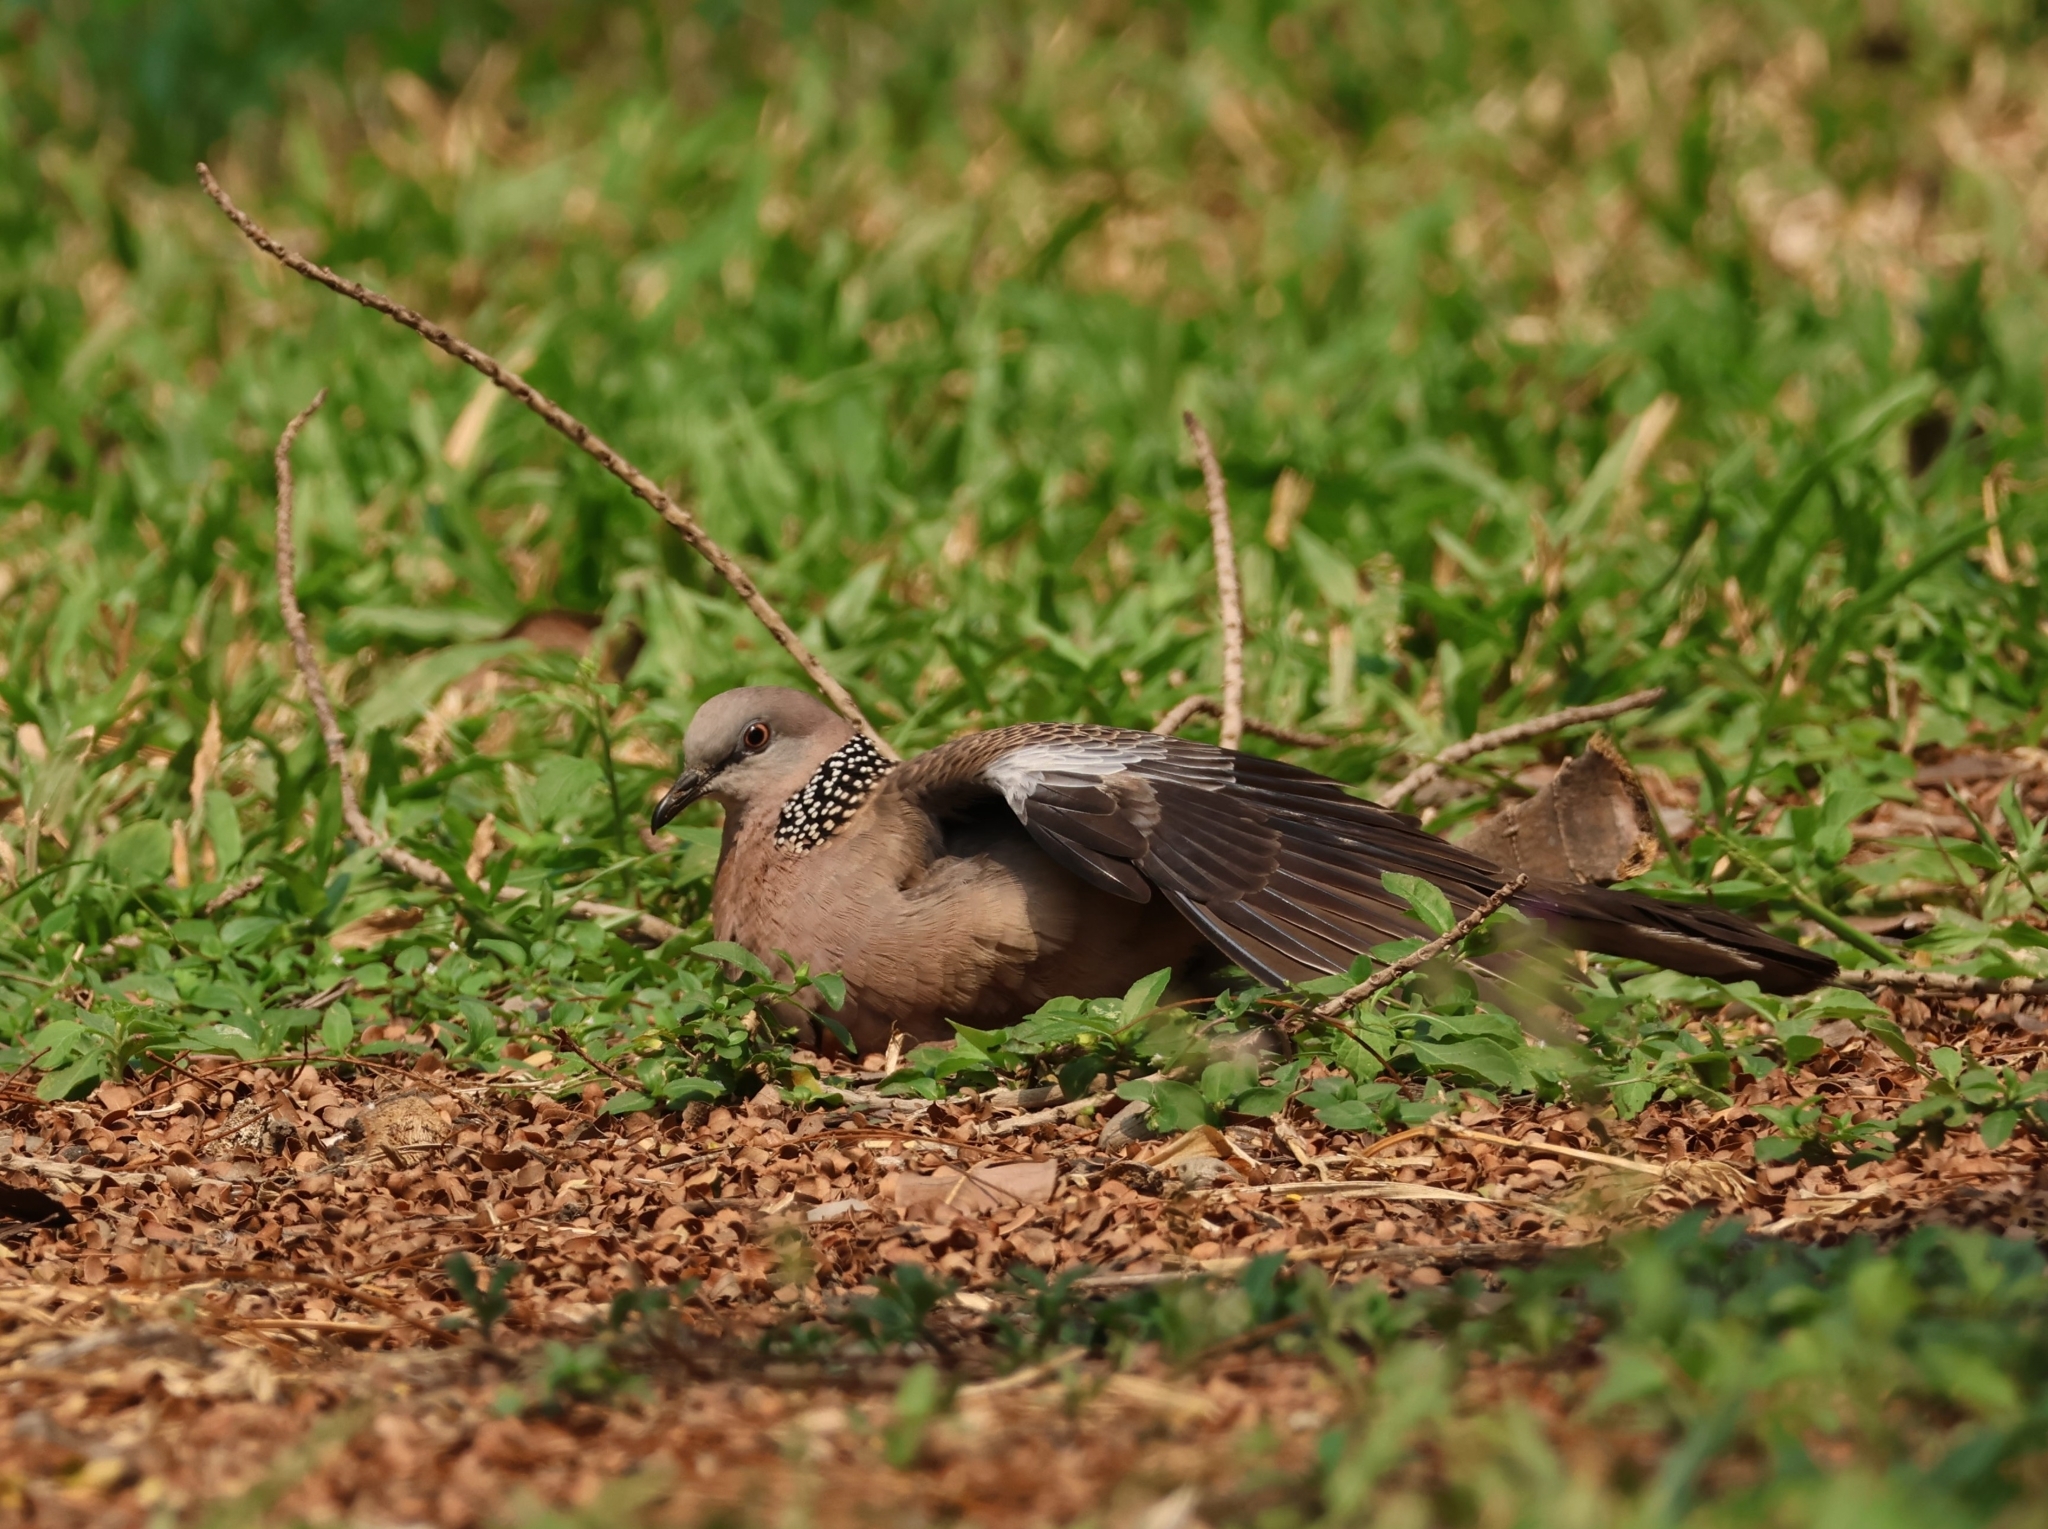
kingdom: Animalia
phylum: Chordata
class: Aves
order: Columbiformes
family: Columbidae
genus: Spilopelia
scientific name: Spilopelia chinensis
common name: Spotted dove
